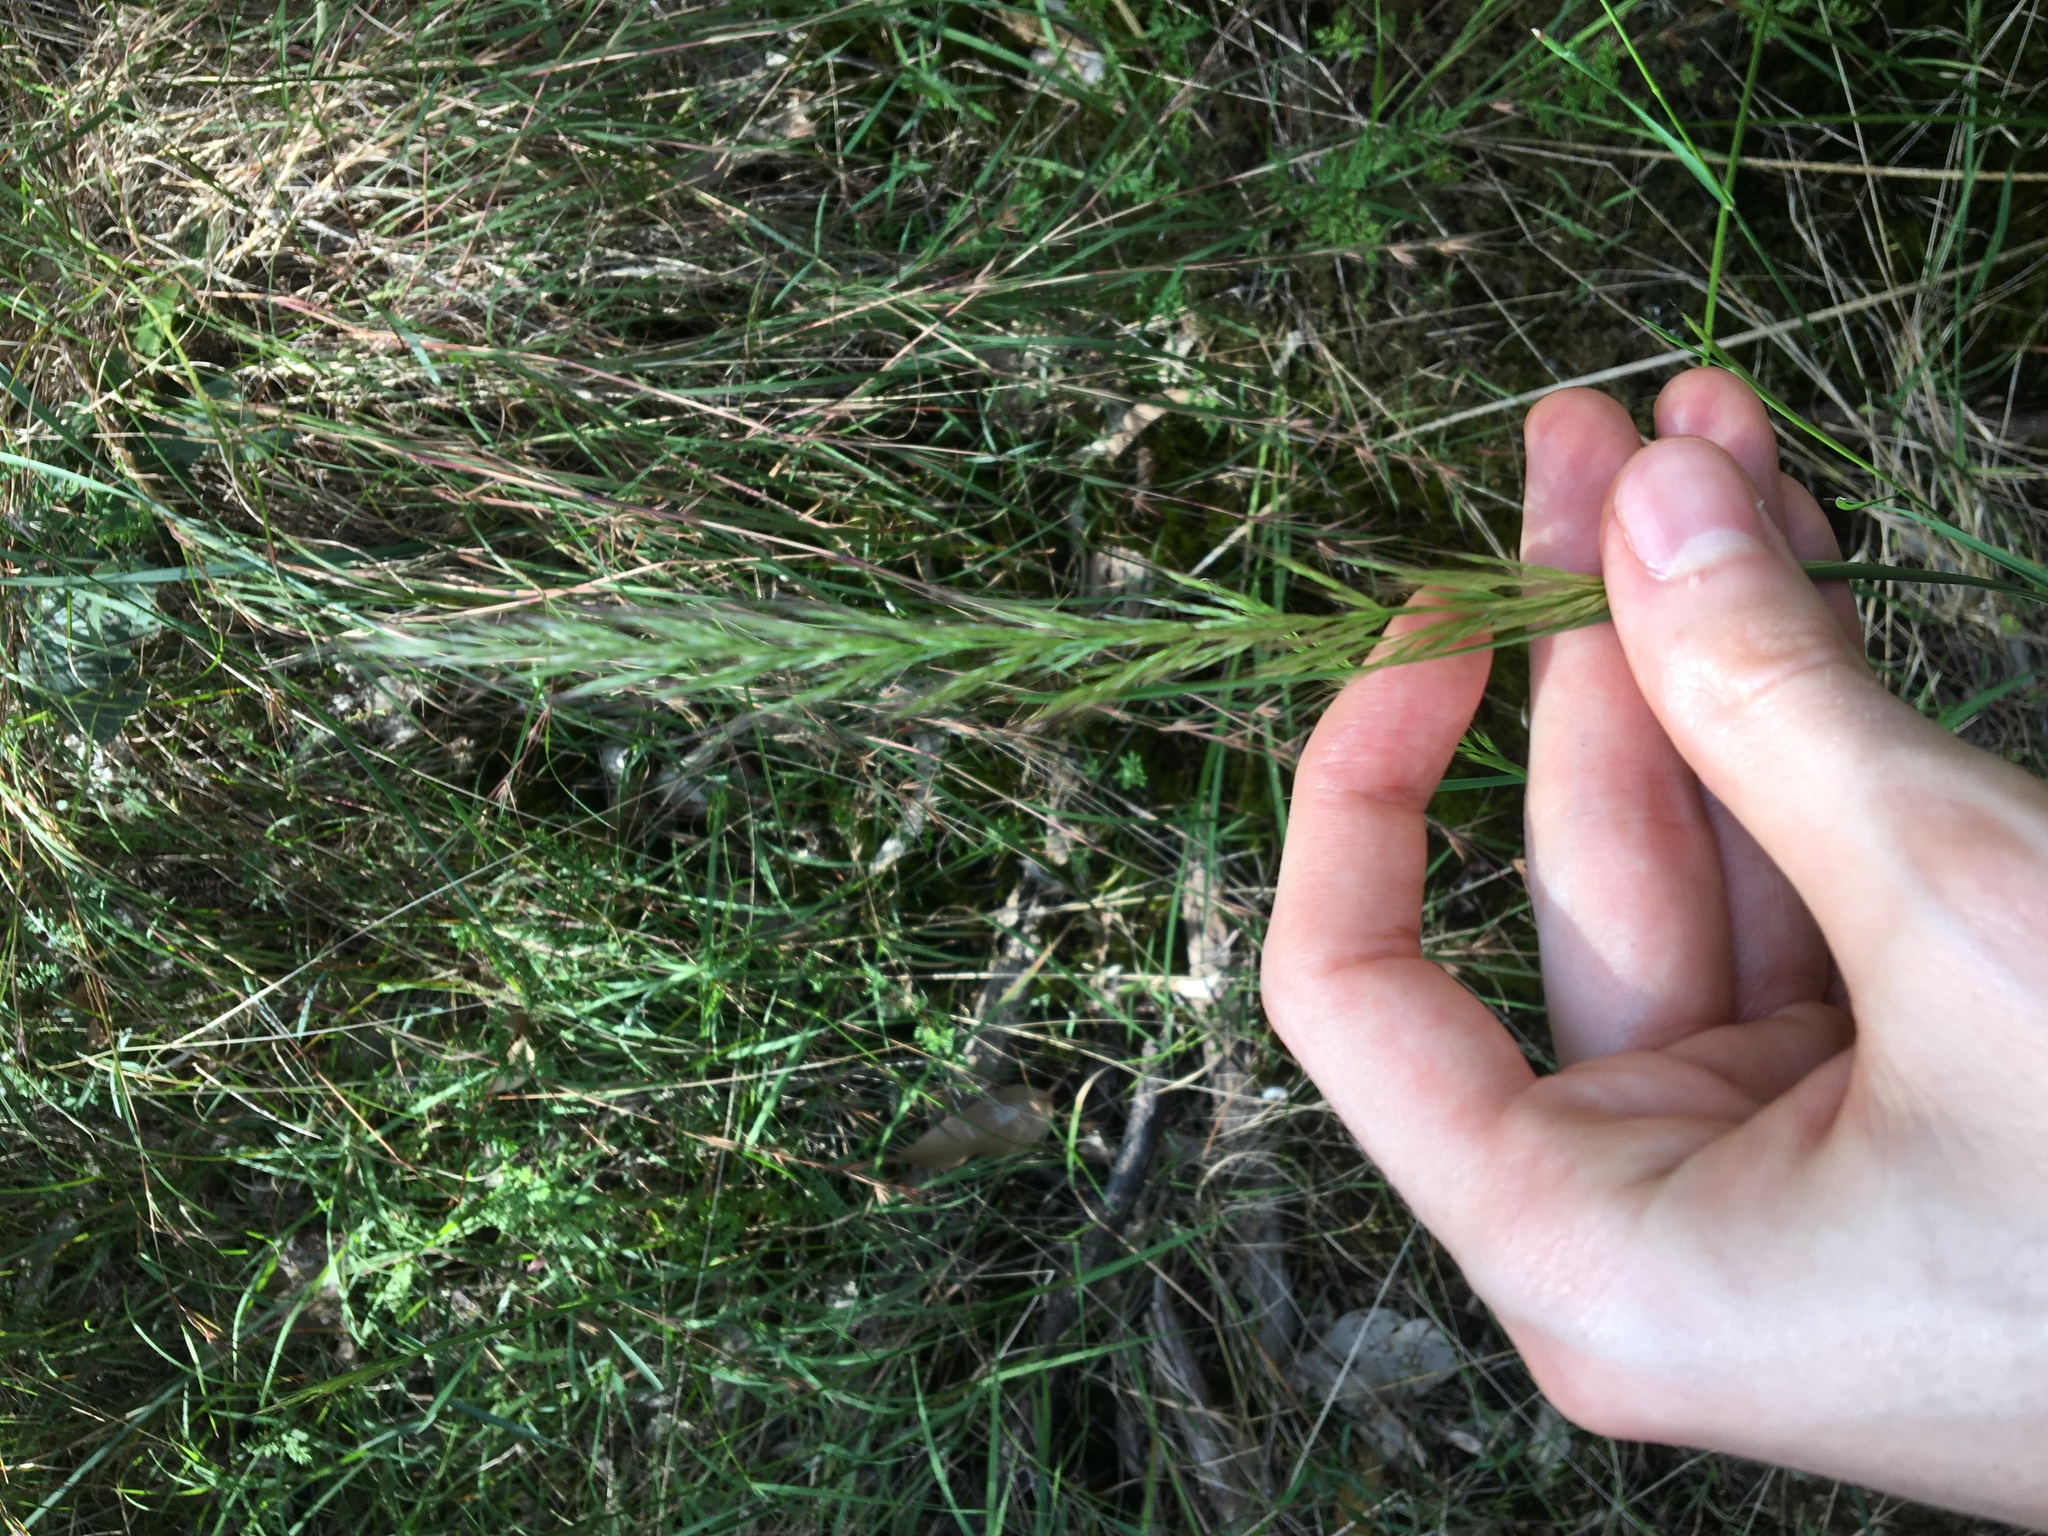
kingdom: Plantae
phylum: Tracheophyta
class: Liliopsida
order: Poales
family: Poaceae
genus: Dichelachne
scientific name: Dichelachne micrantha
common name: Plumegrass
